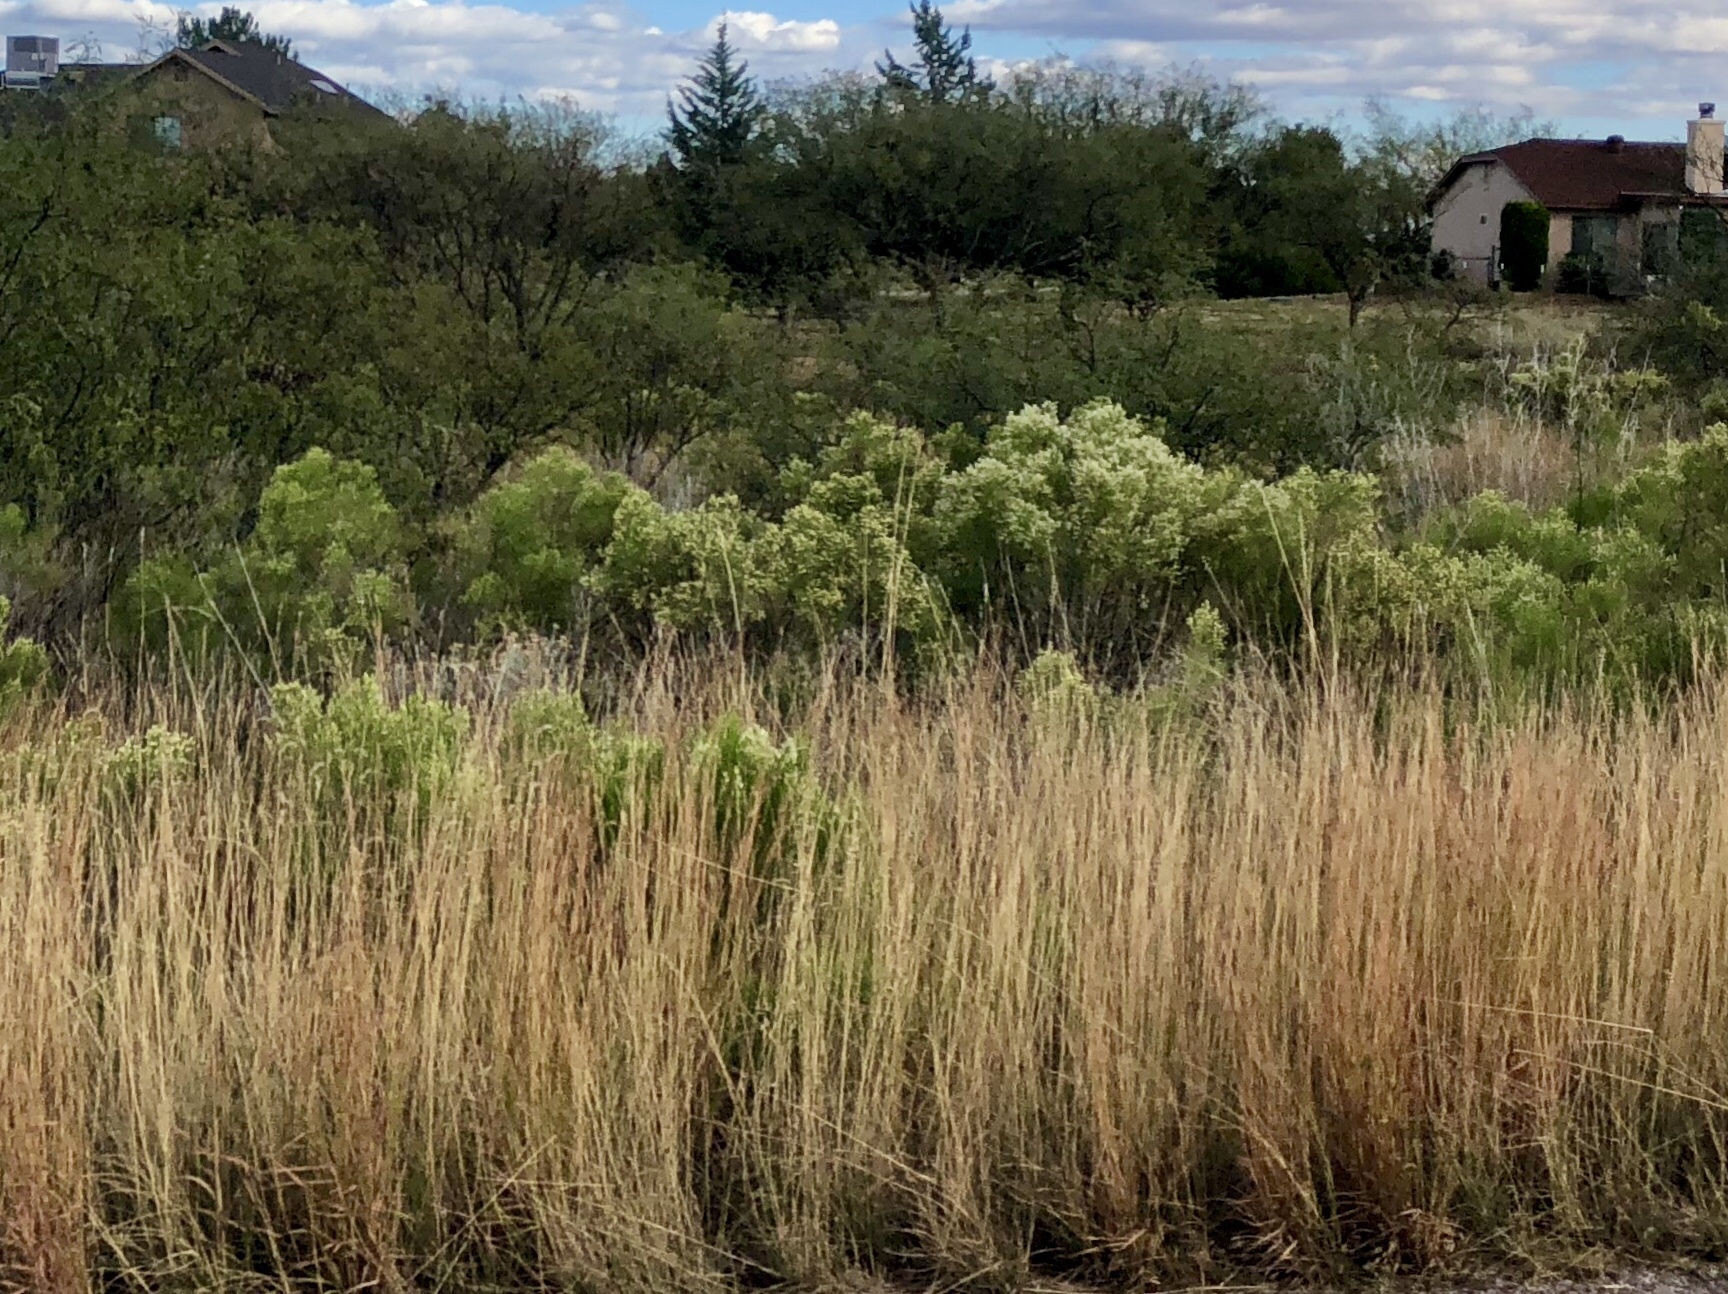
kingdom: Plantae
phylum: Tracheophyta
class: Magnoliopsida
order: Asterales
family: Asteraceae
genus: Baccharis
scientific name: Baccharis sarothroides
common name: Desert-broom
